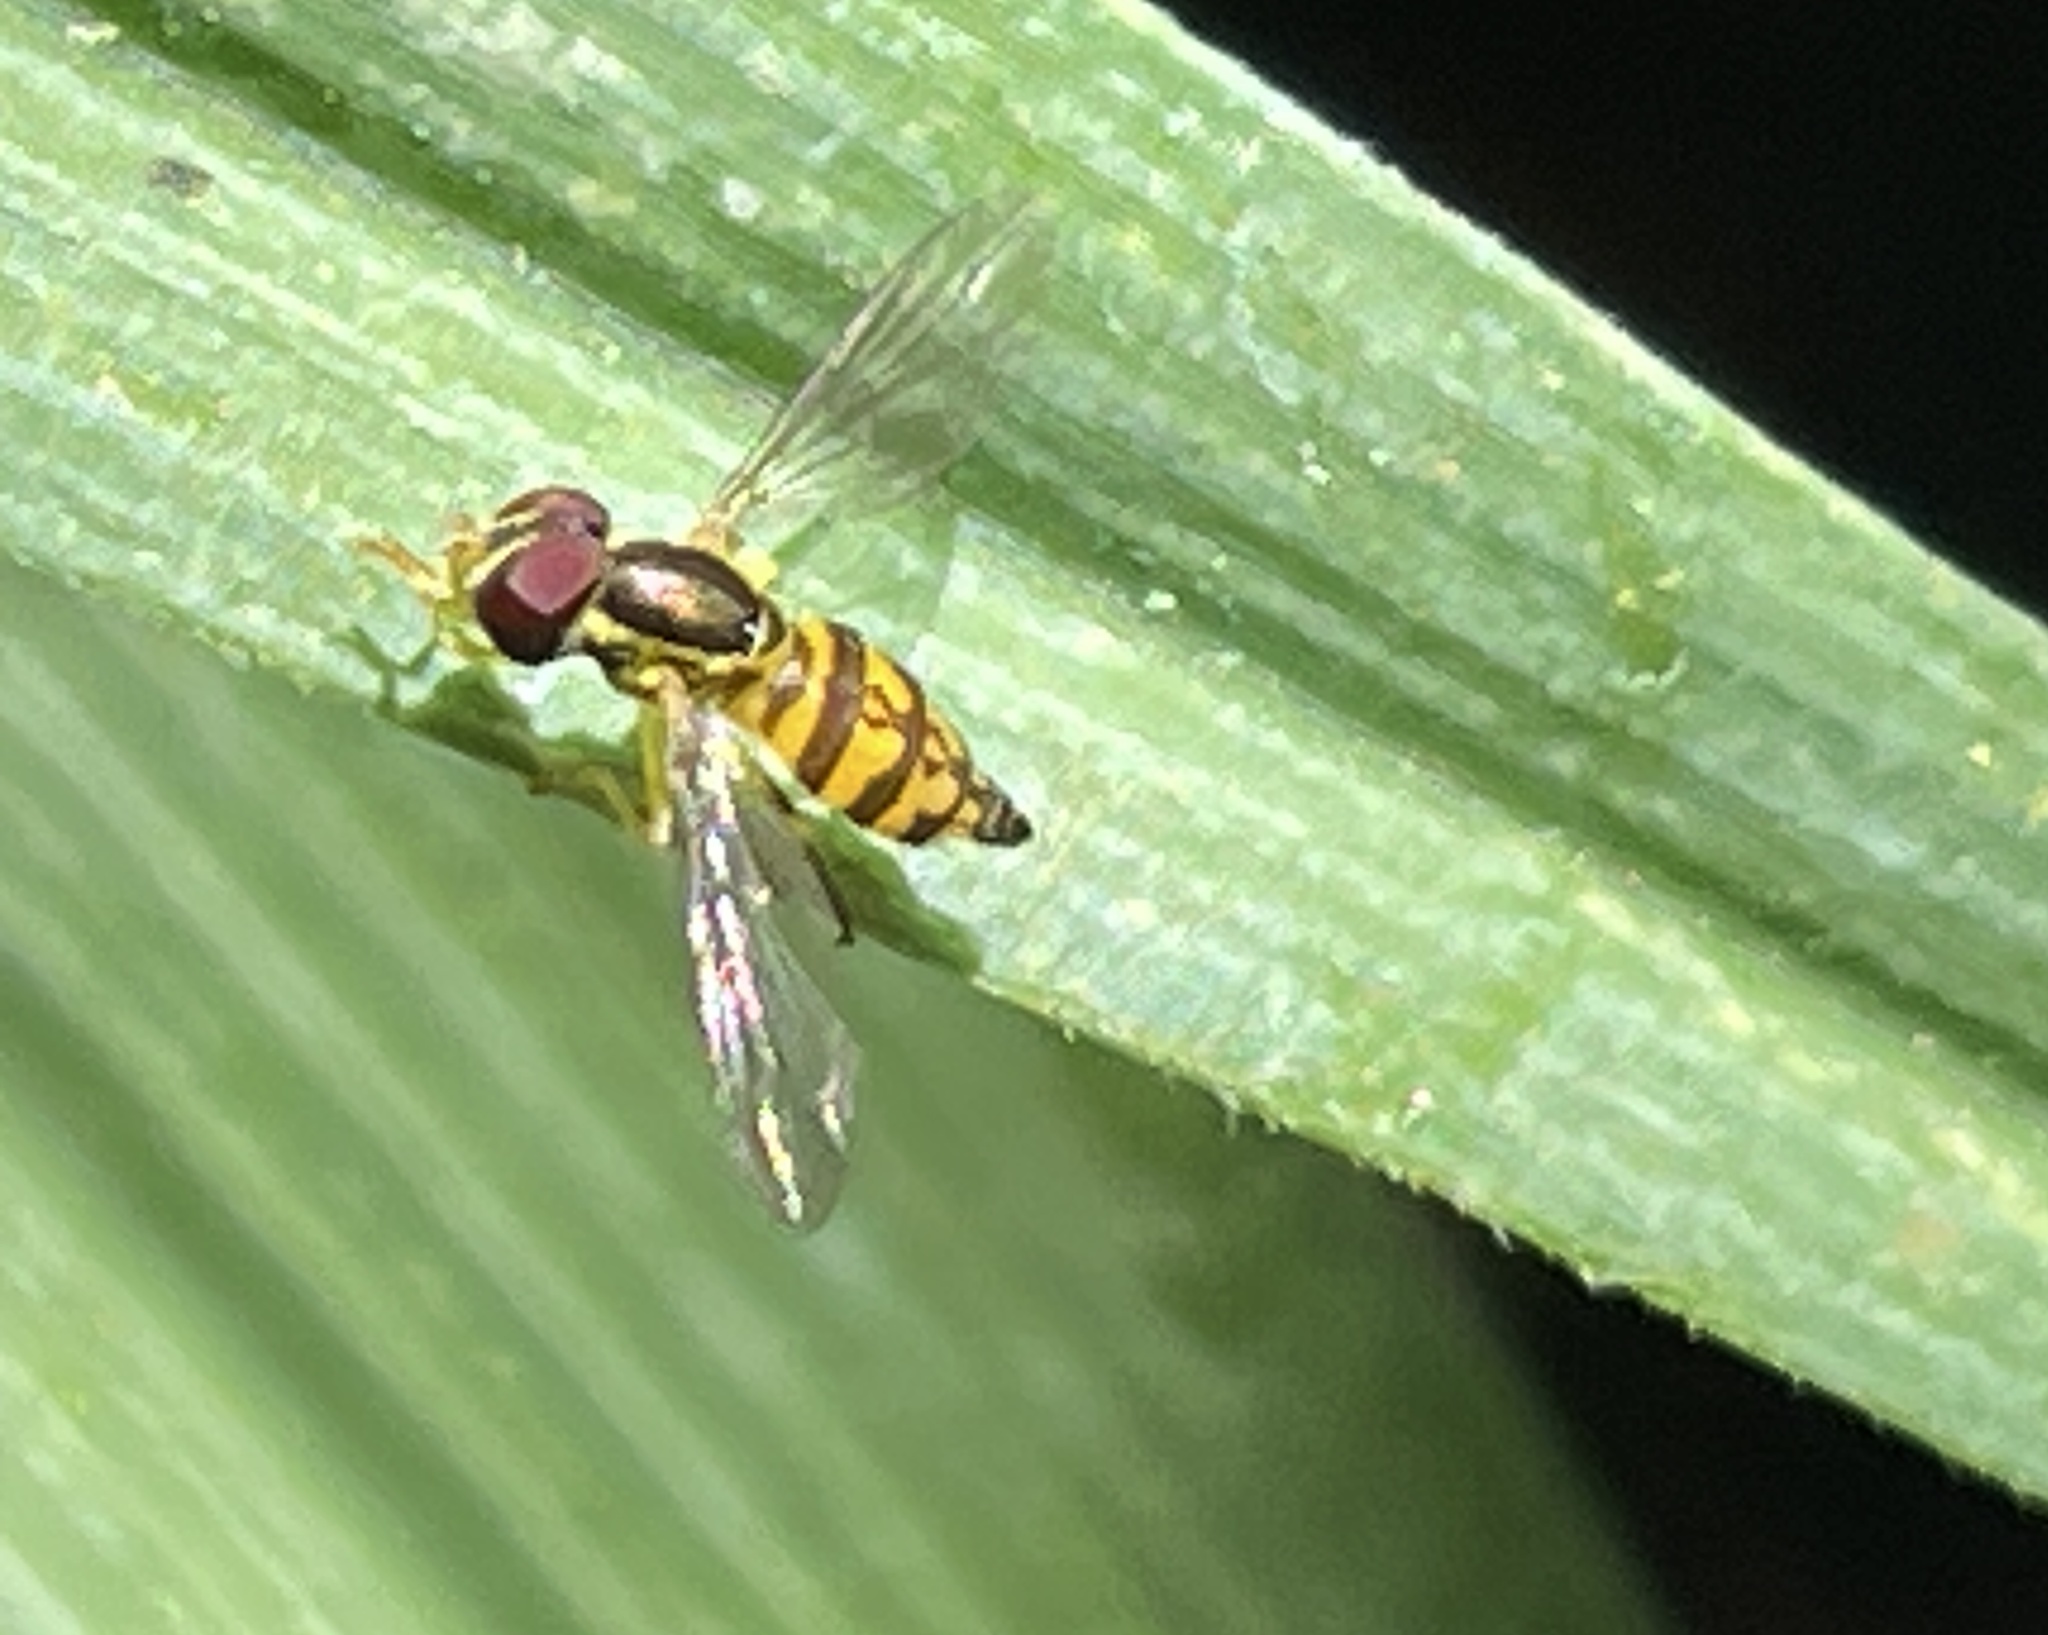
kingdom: Animalia
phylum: Arthropoda
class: Insecta
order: Diptera
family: Syrphidae
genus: Toxomerus
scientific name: Toxomerus geminatus
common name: Eastern calligrapher
